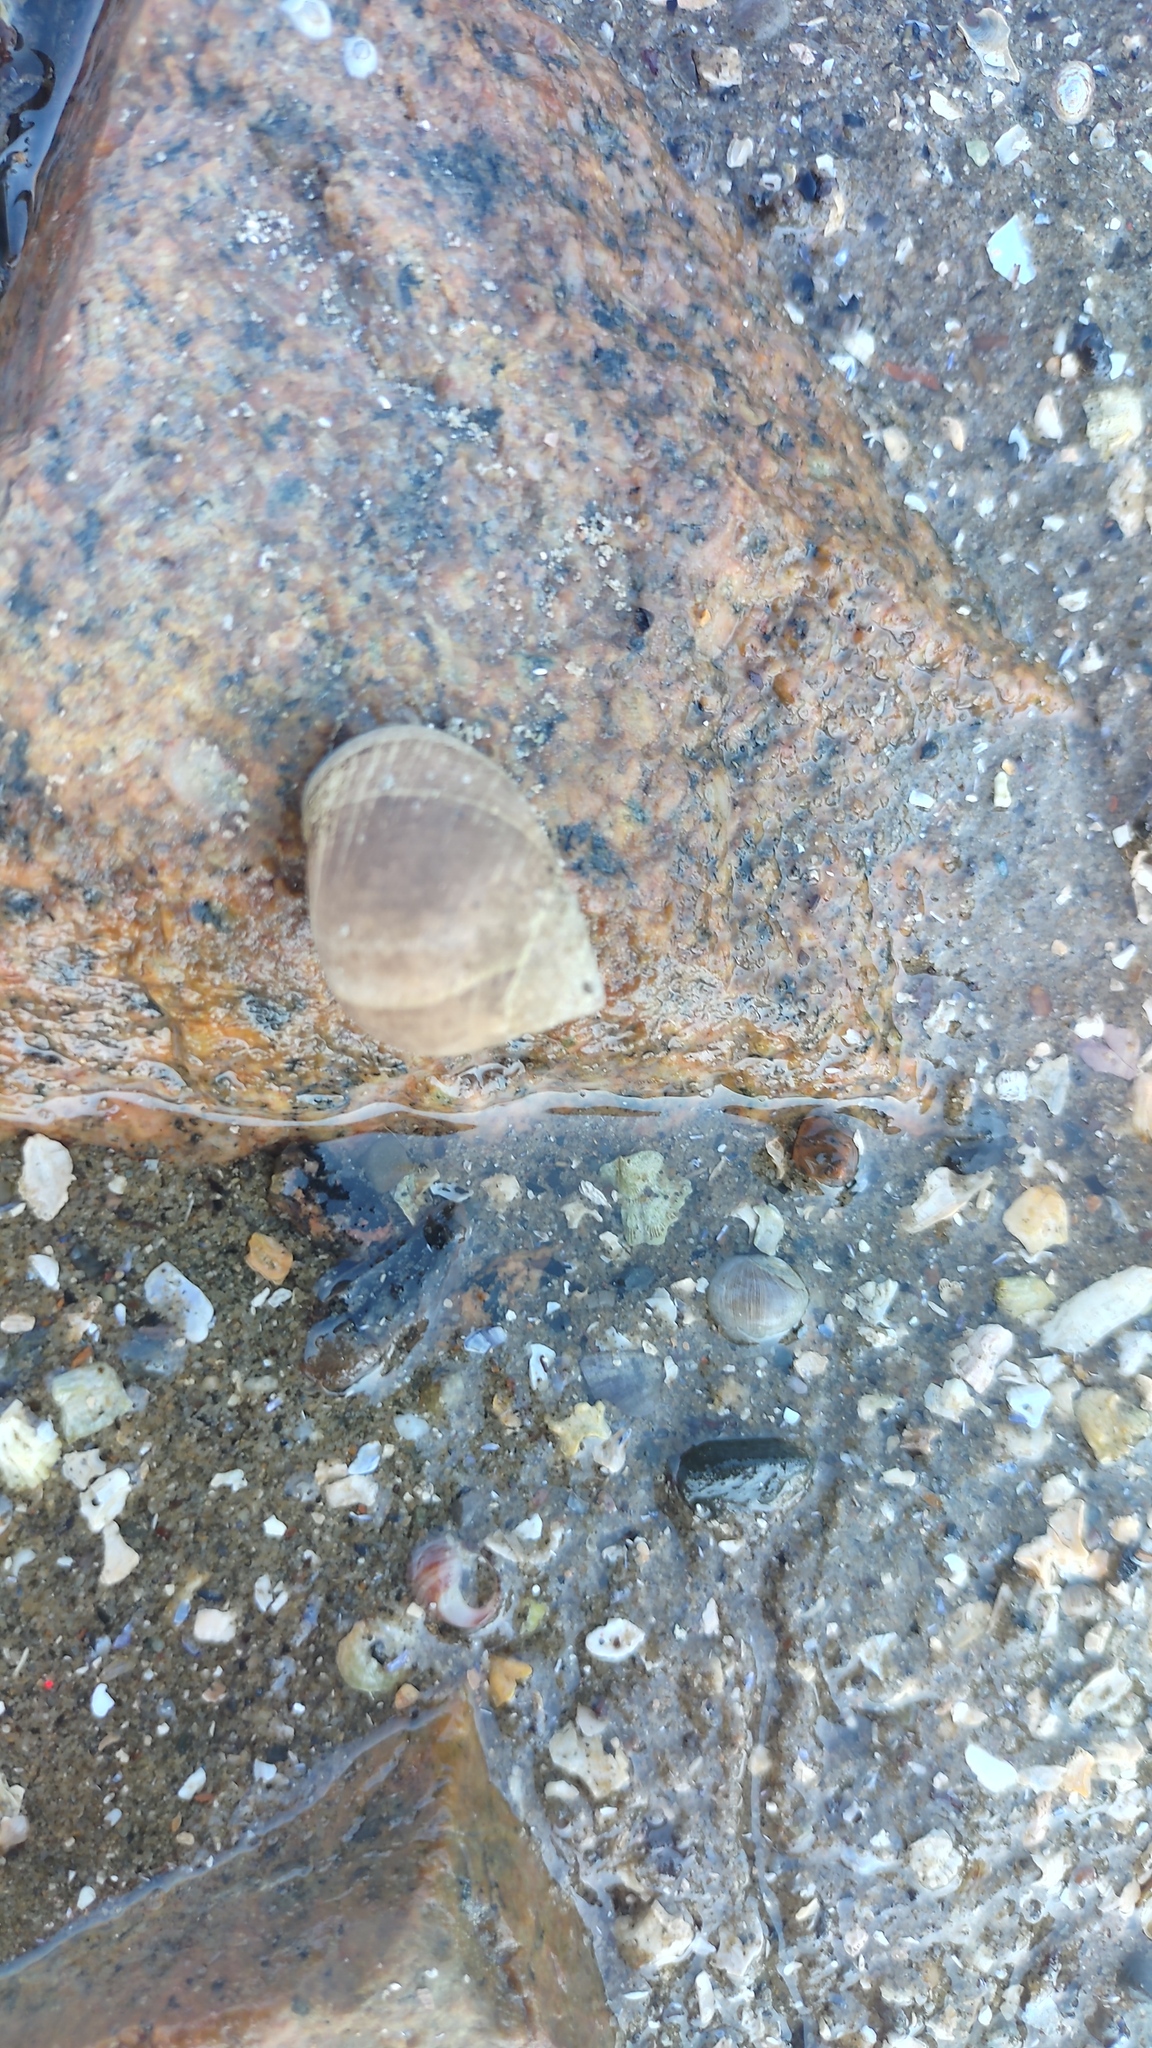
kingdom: Animalia
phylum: Mollusca
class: Gastropoda
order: Littorinimorpha
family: Littorinidae
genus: Littorina
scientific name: Littorina littorea
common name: Common periwinkle
